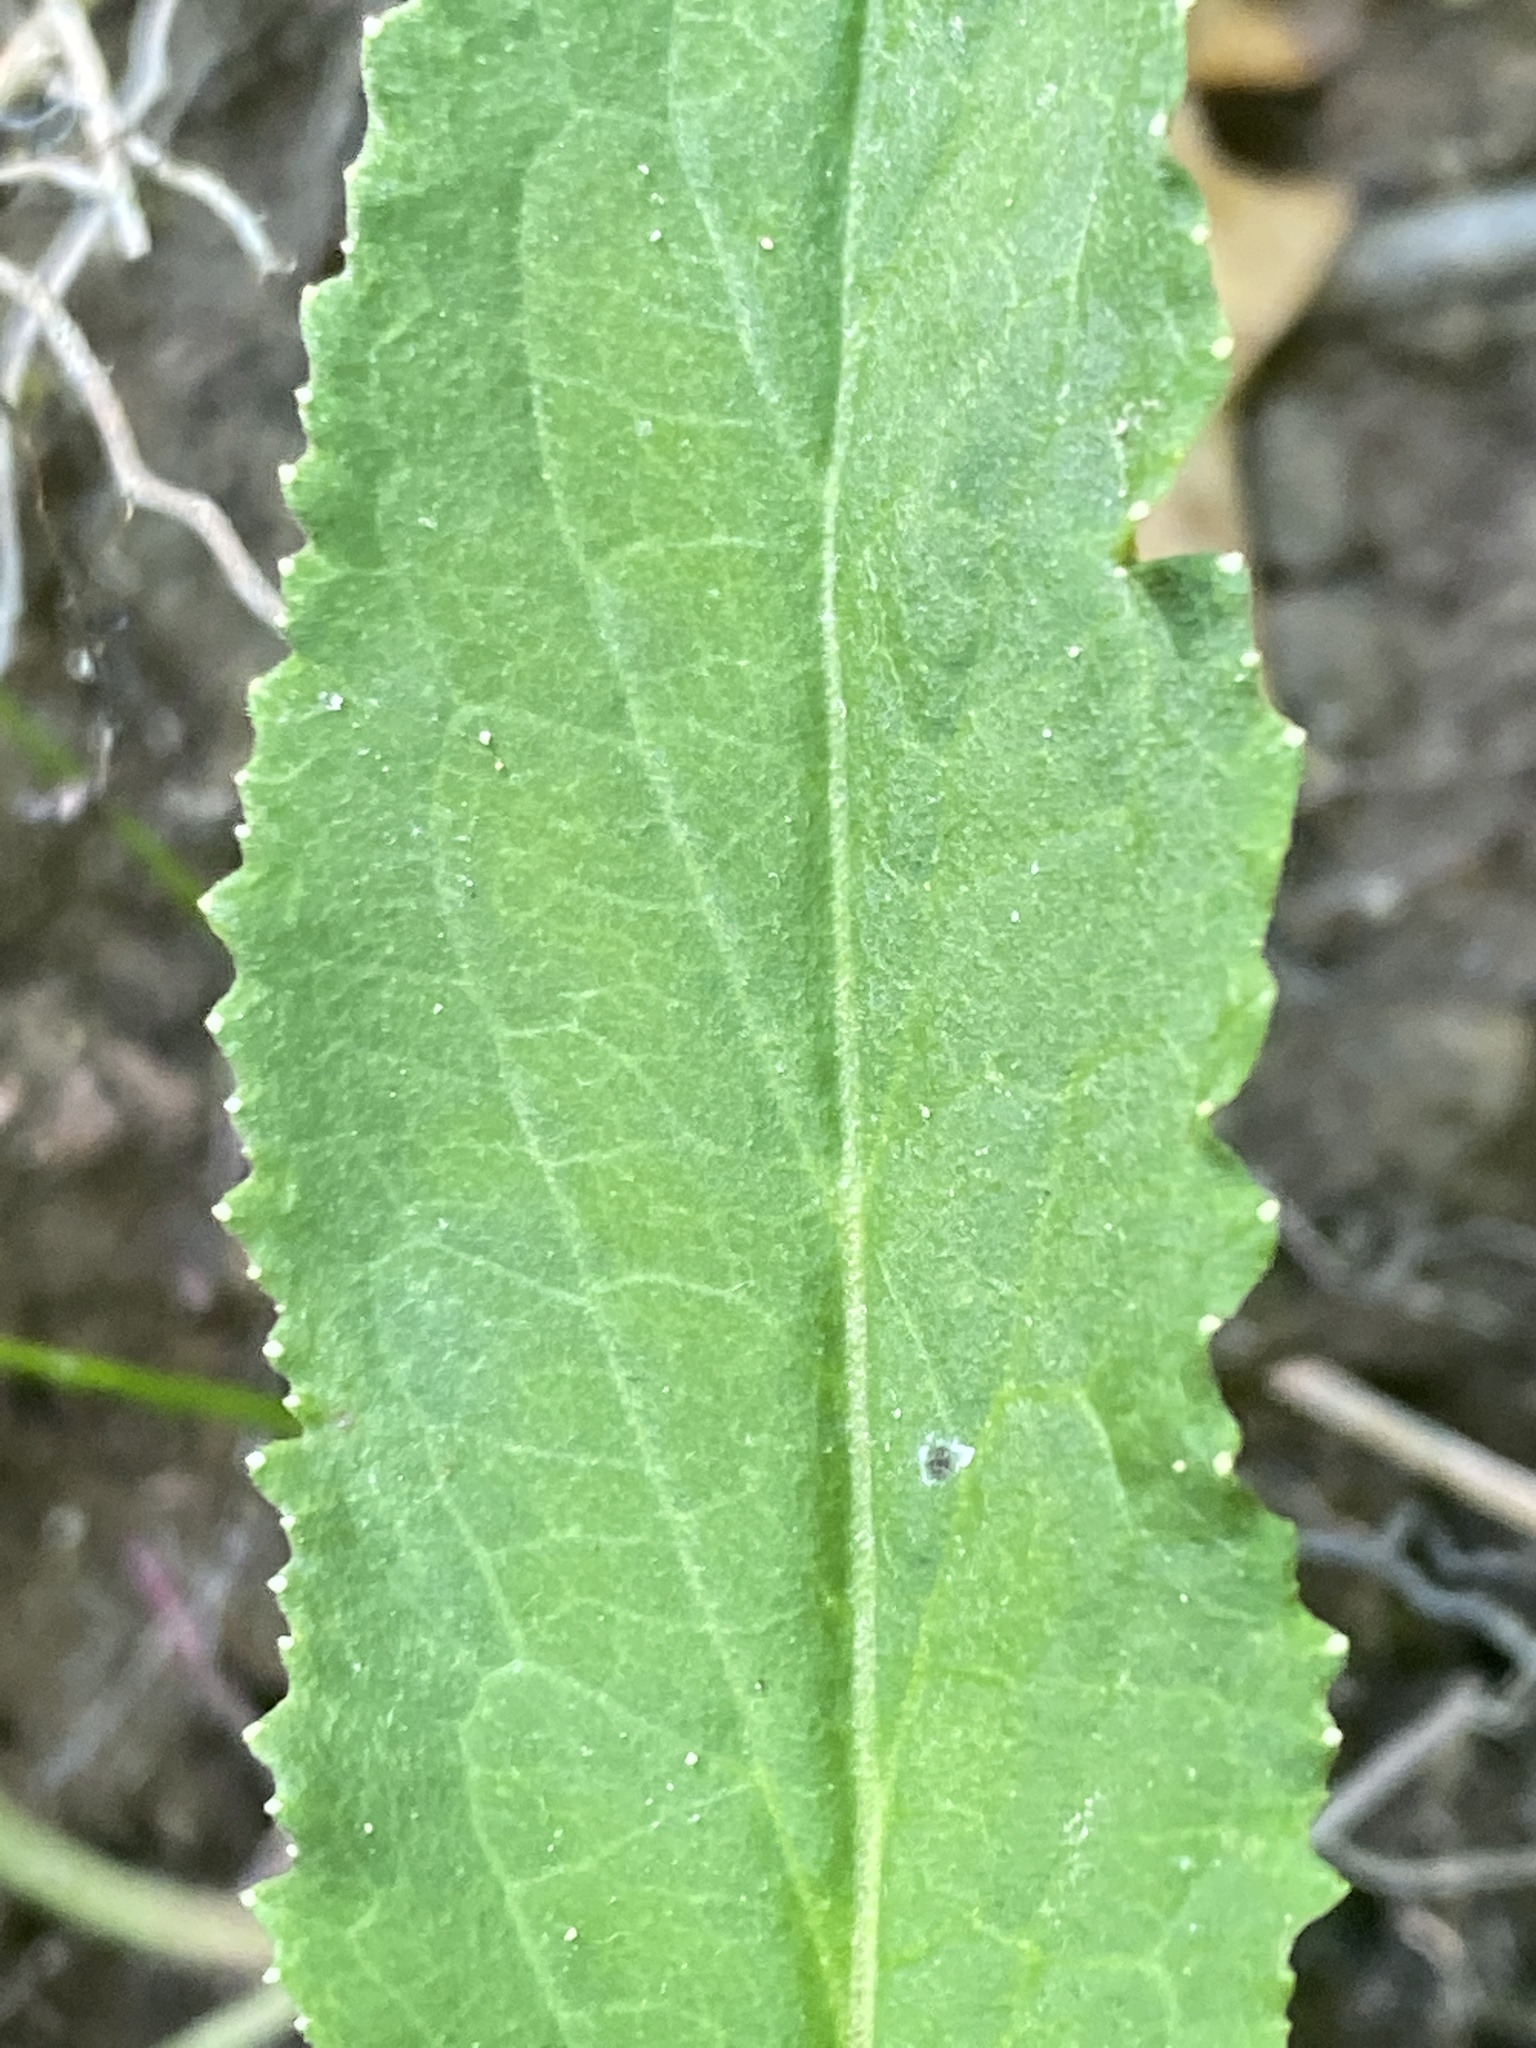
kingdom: Plantae
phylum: Tracheophyta
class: Magnoliopsida
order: Asterales
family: Campanulaceae
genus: Lobelia
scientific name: Lobelia cardinalis
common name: Cardinal flower
